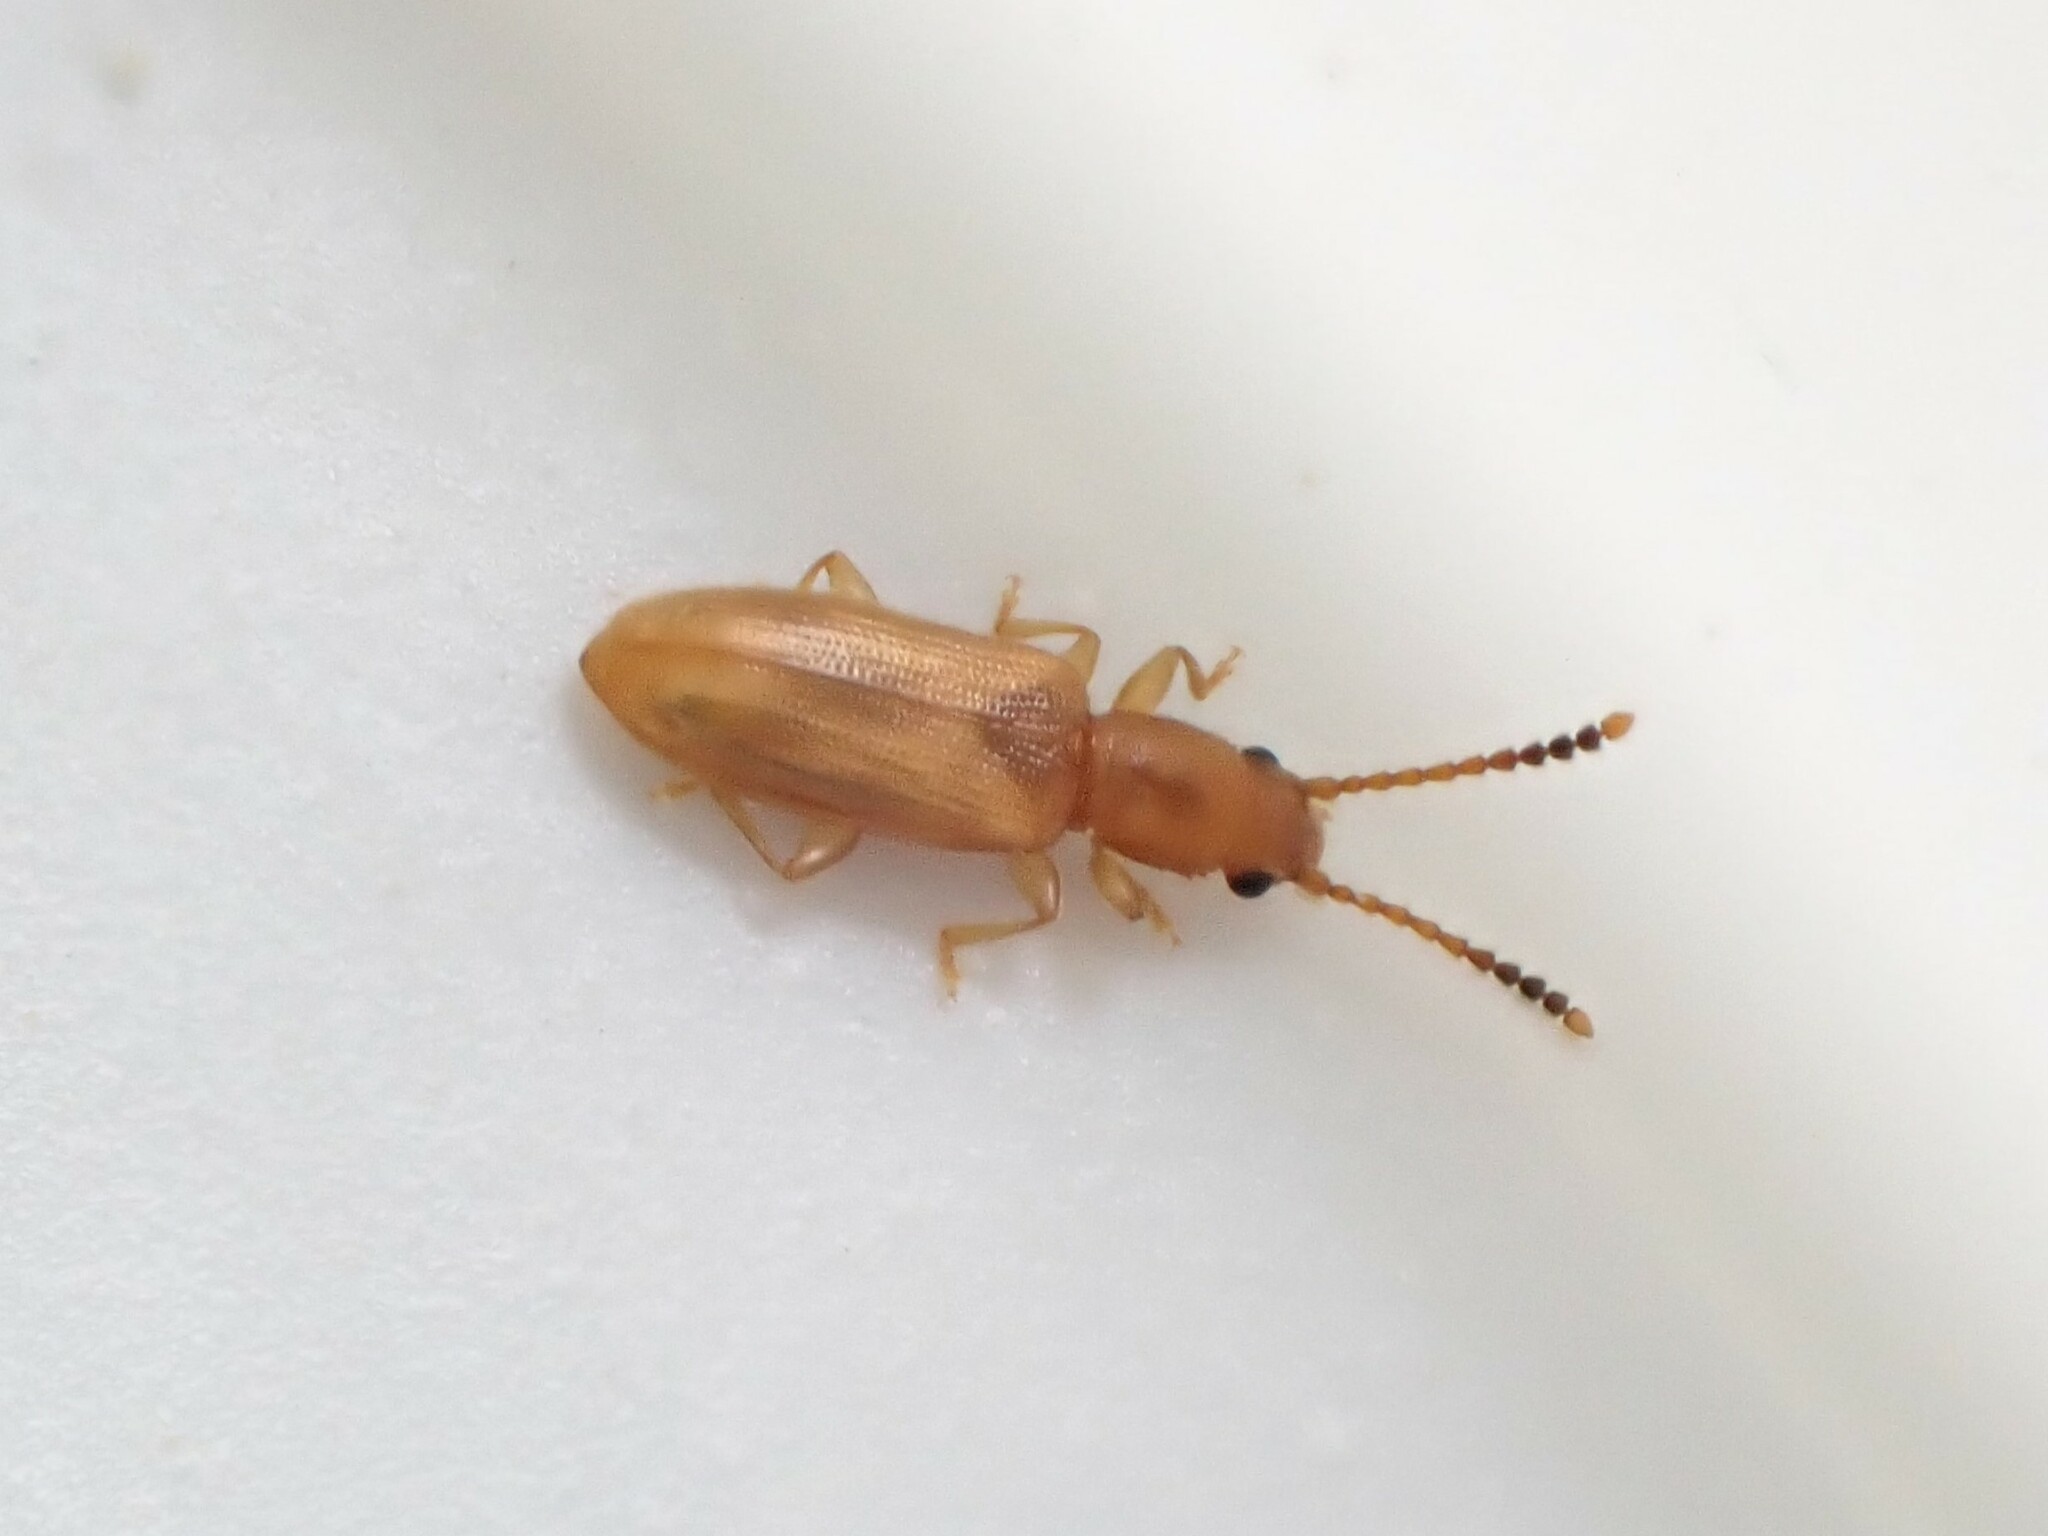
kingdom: Animalia
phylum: Arthropoda
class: Insecta
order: Coleoptera
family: Silvanidae
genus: Cryptamorpha
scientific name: Cryptamorpha desjardinsi
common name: Cryptamorpha
